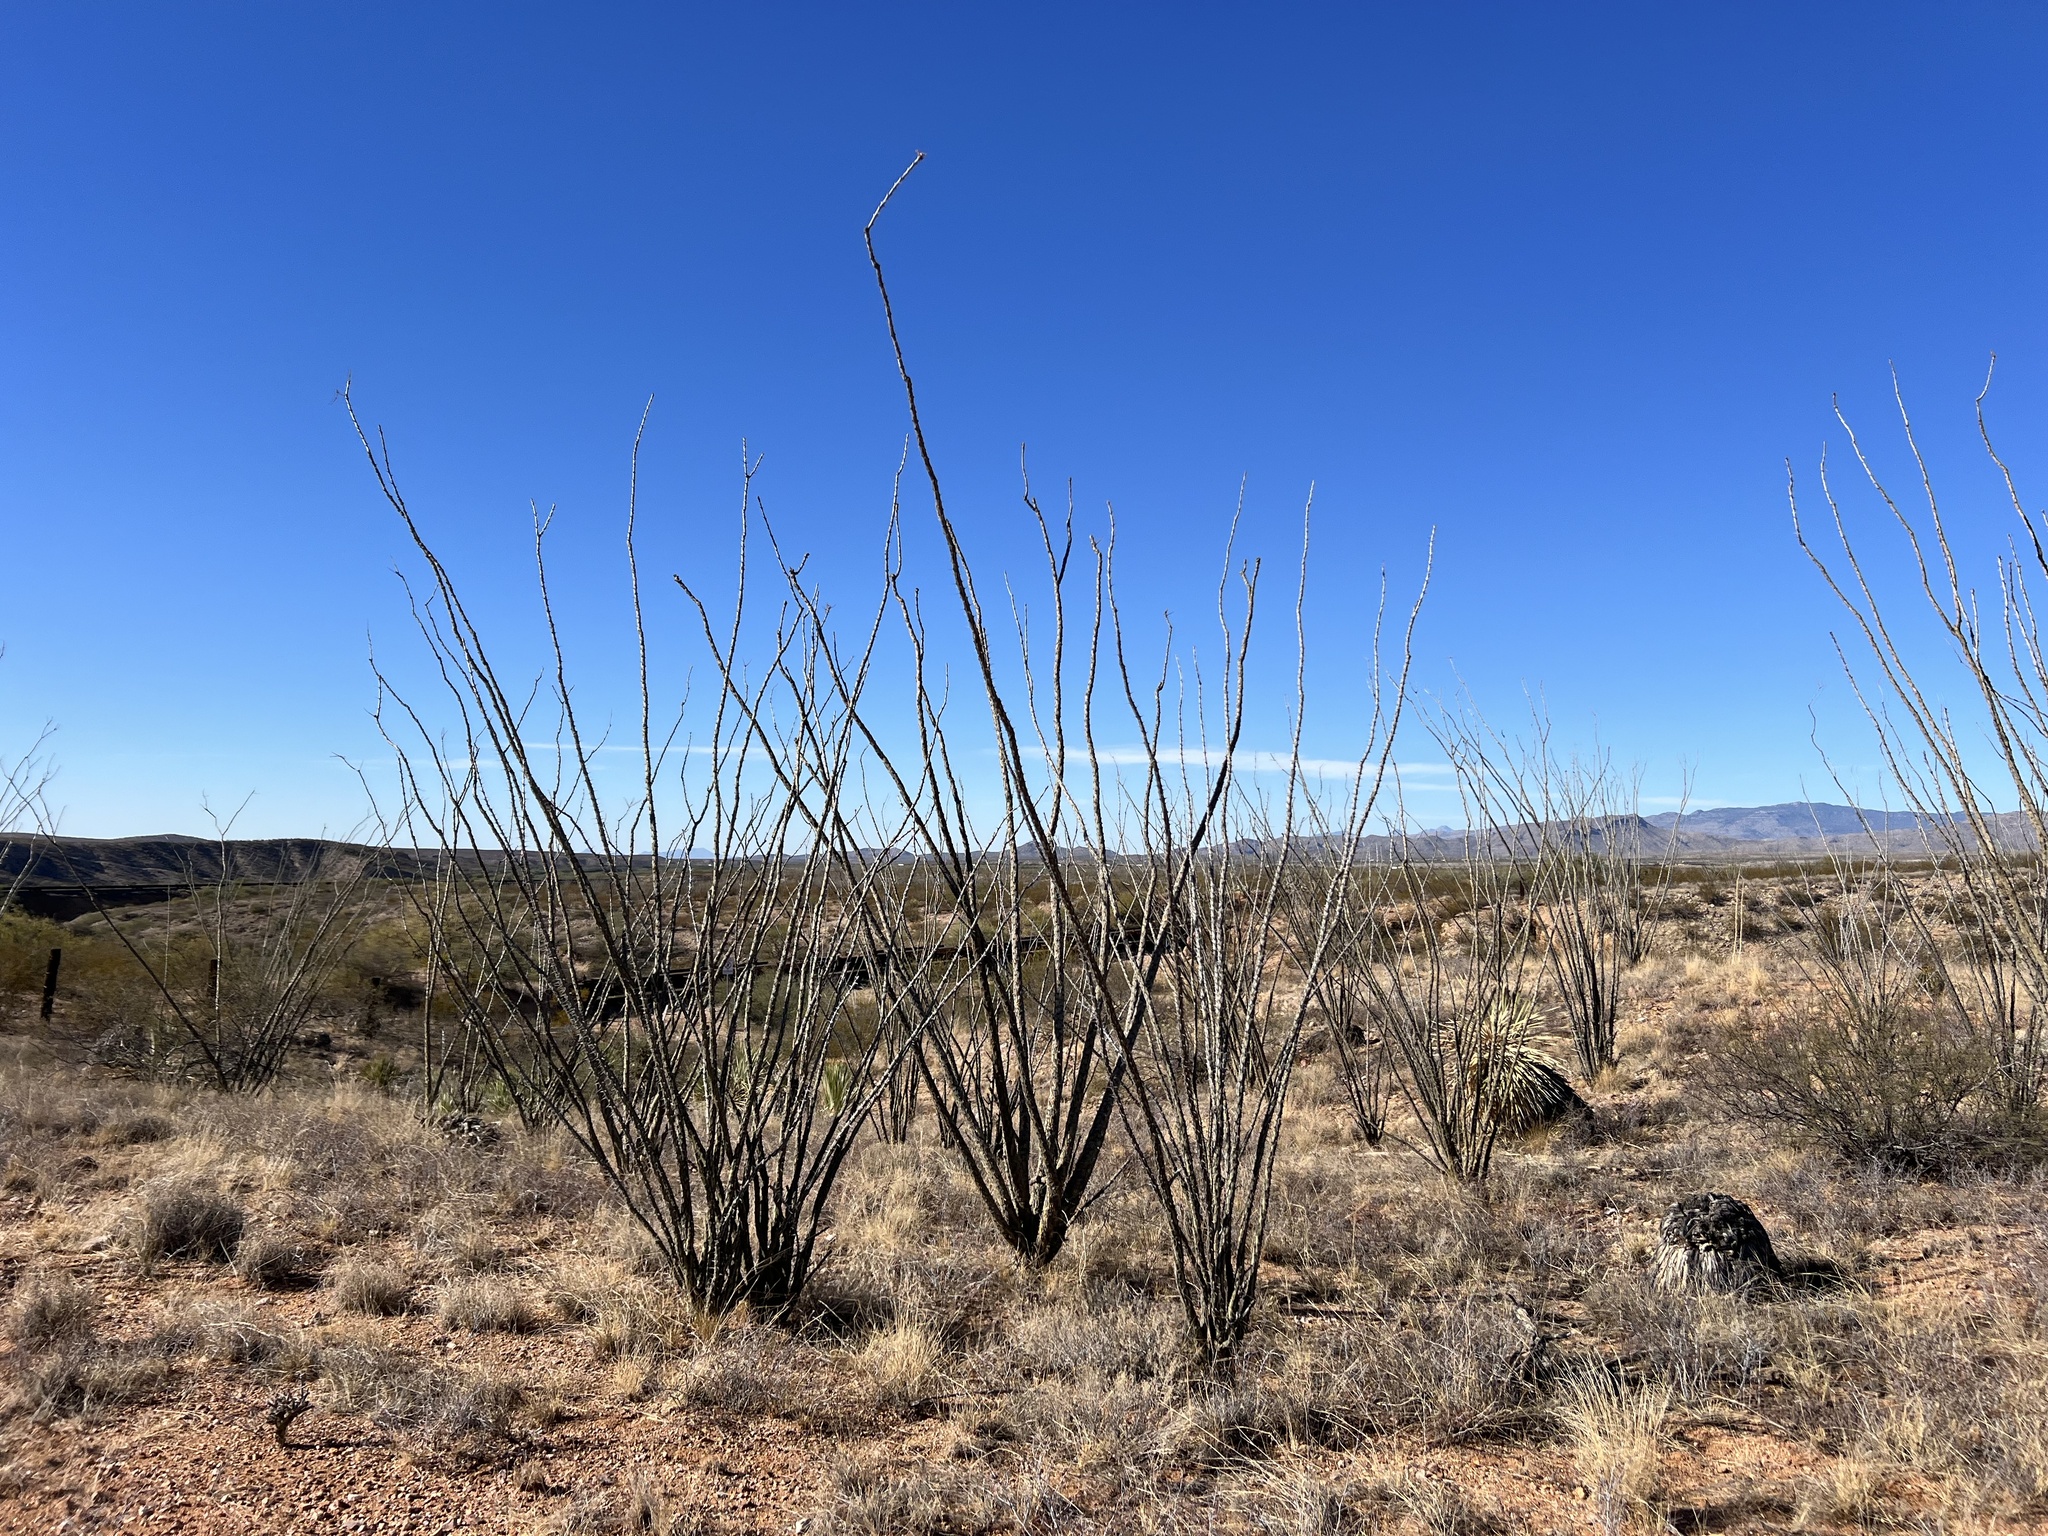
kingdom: Plantae
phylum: Tracheophyta
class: Magnoliopsida
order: Ericales
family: Fouquieriaceae
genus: Fouquieria
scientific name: Fouquieria splendens
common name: Vine-cactus
